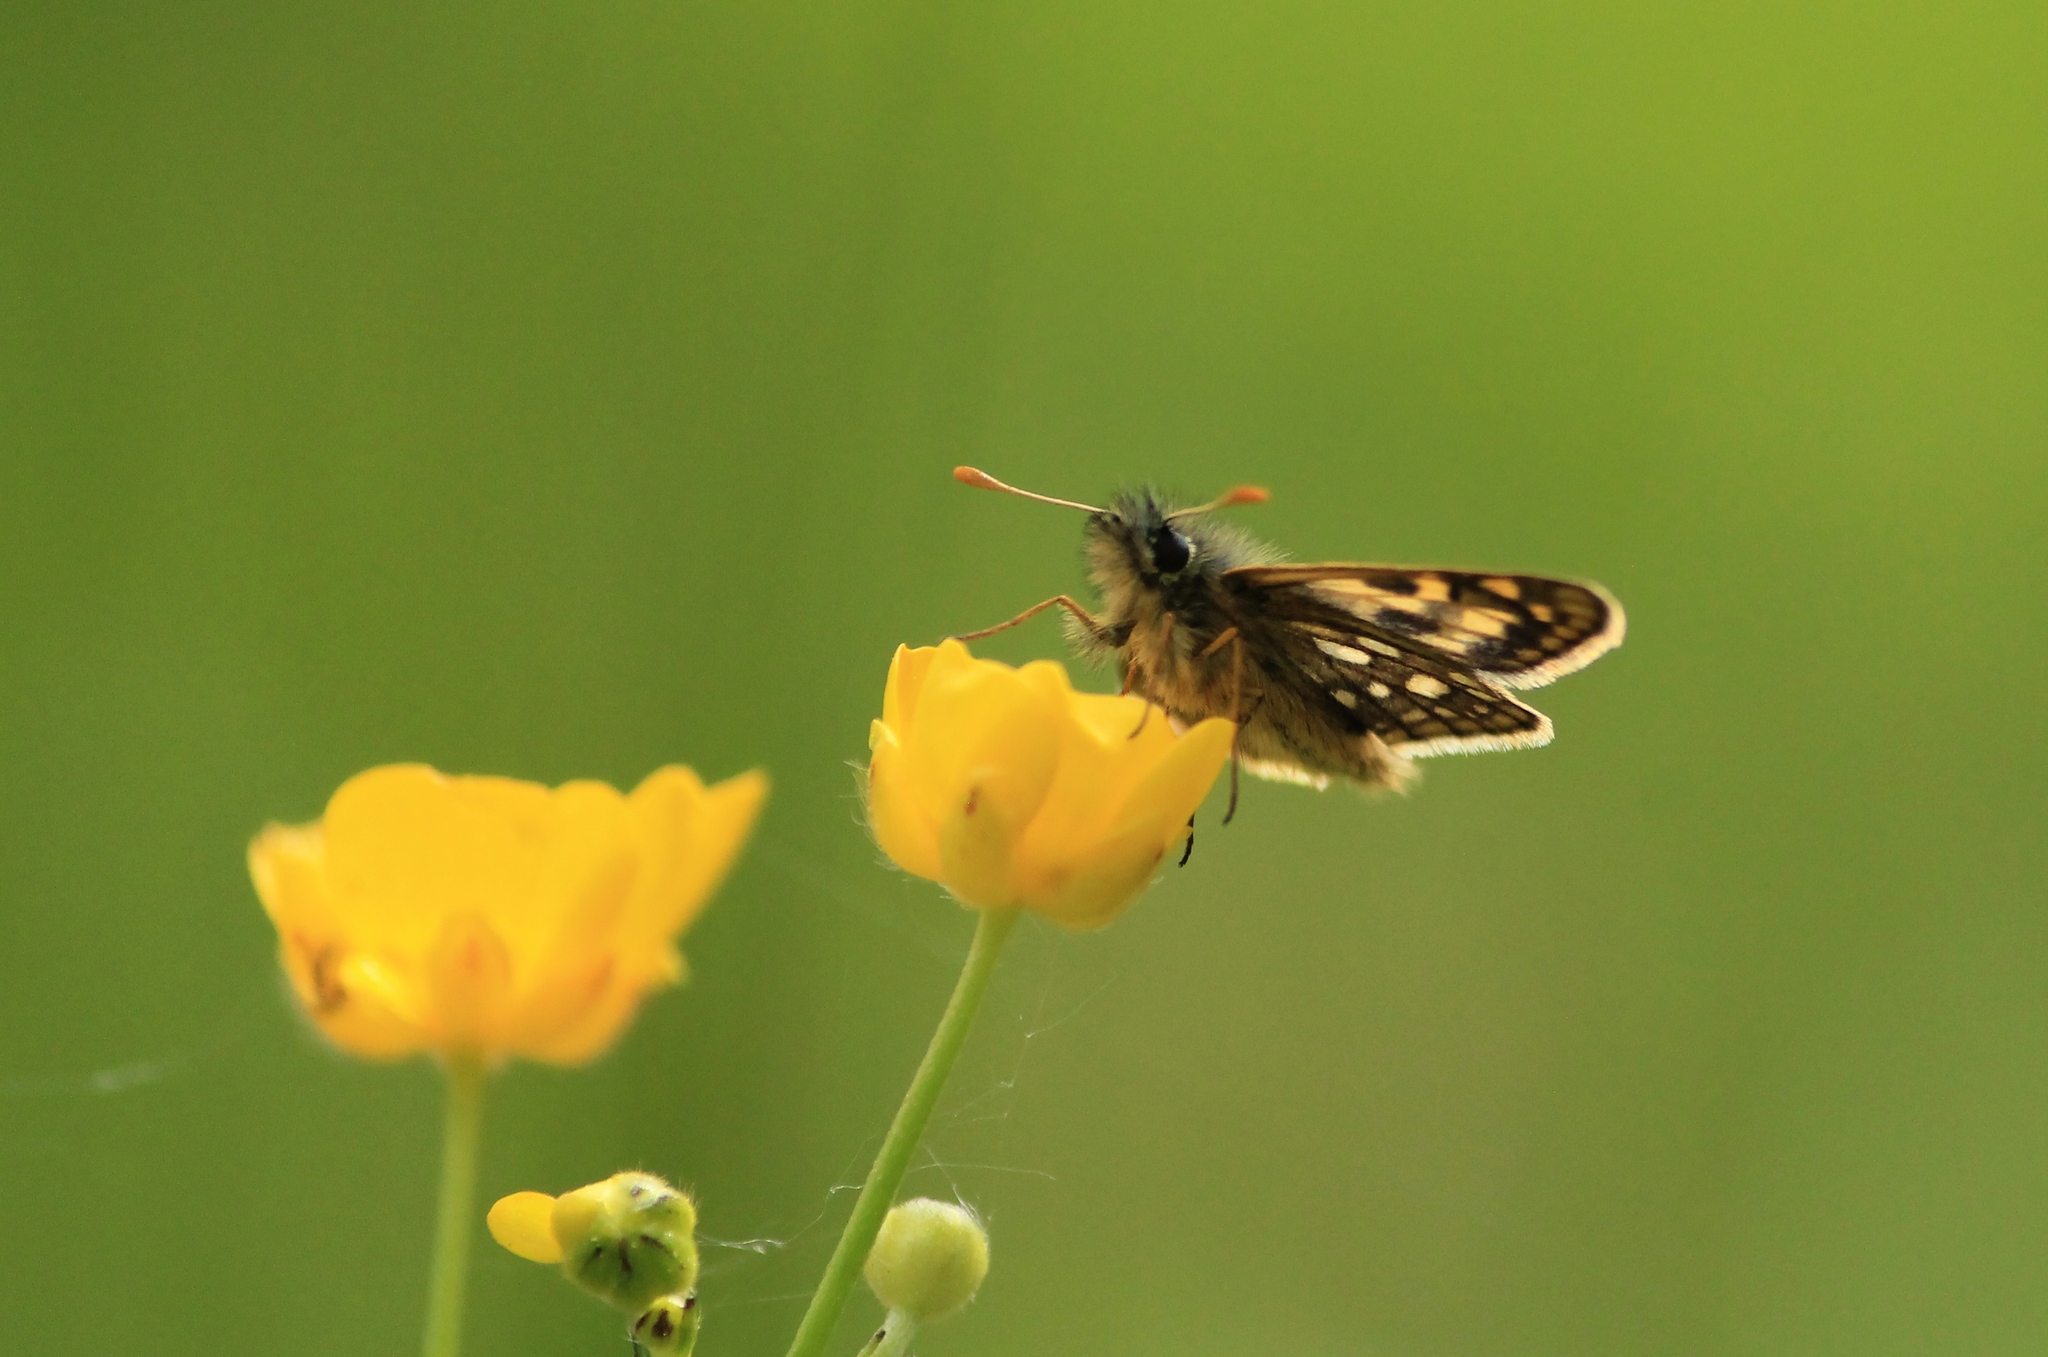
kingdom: Animalia
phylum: Arthropoda
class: Insecta
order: Lepidoptera
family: Hesperiidae
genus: Carterocephalus
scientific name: Carterocephalus palaemon
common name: Chequered skipper
